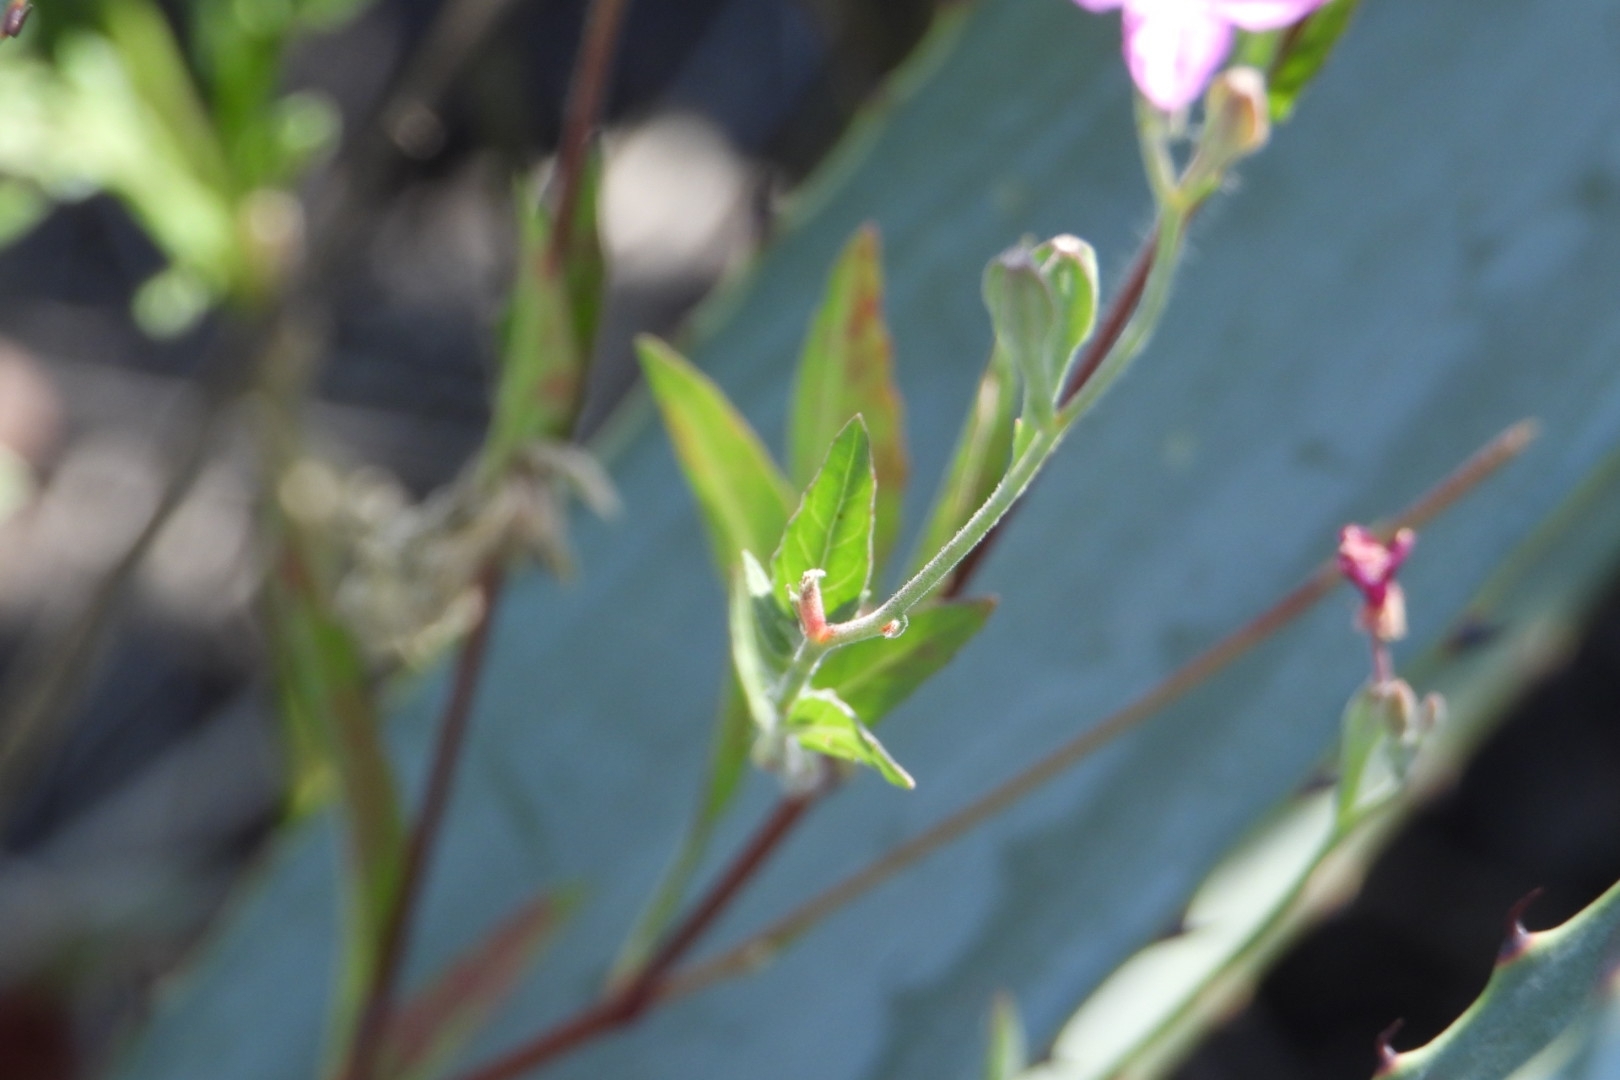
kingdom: Plantae
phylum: Tracheophyta
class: Magnoliopsida
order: Myrtales
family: Onagraceae
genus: Oenothera
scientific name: Oenothera rosea
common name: Rosy evening-primrose
